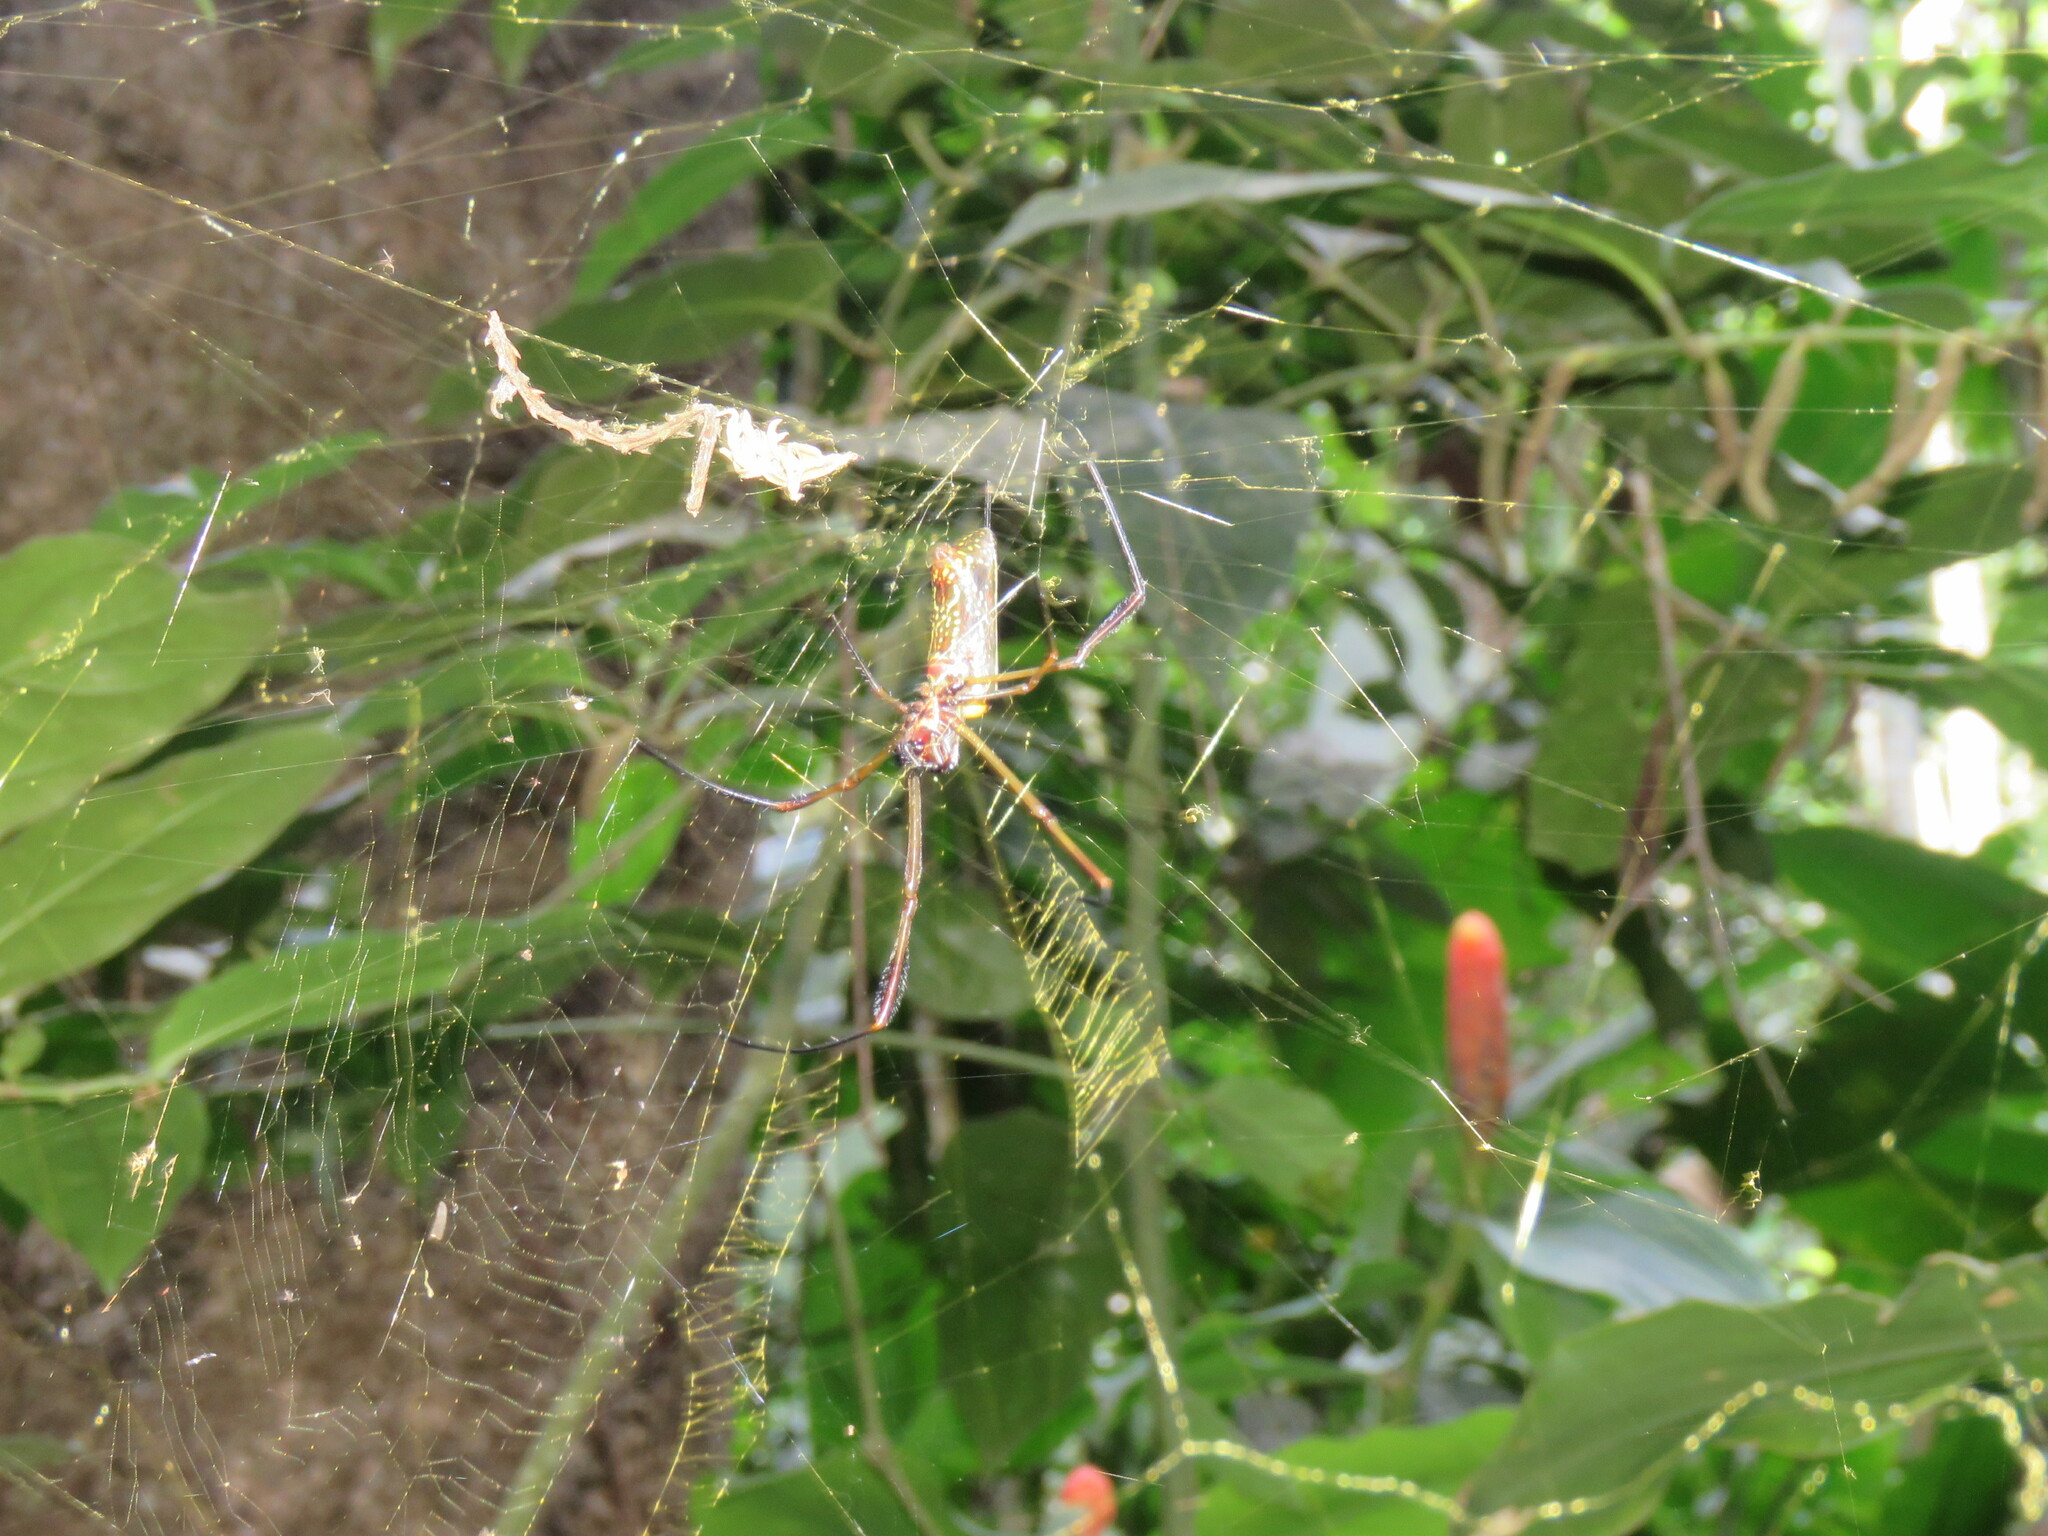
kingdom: Animalia
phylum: Arthropoda
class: Arachnida
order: Araneae
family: Araneidae
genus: Trichonephila
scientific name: Trichonephila clavipes
